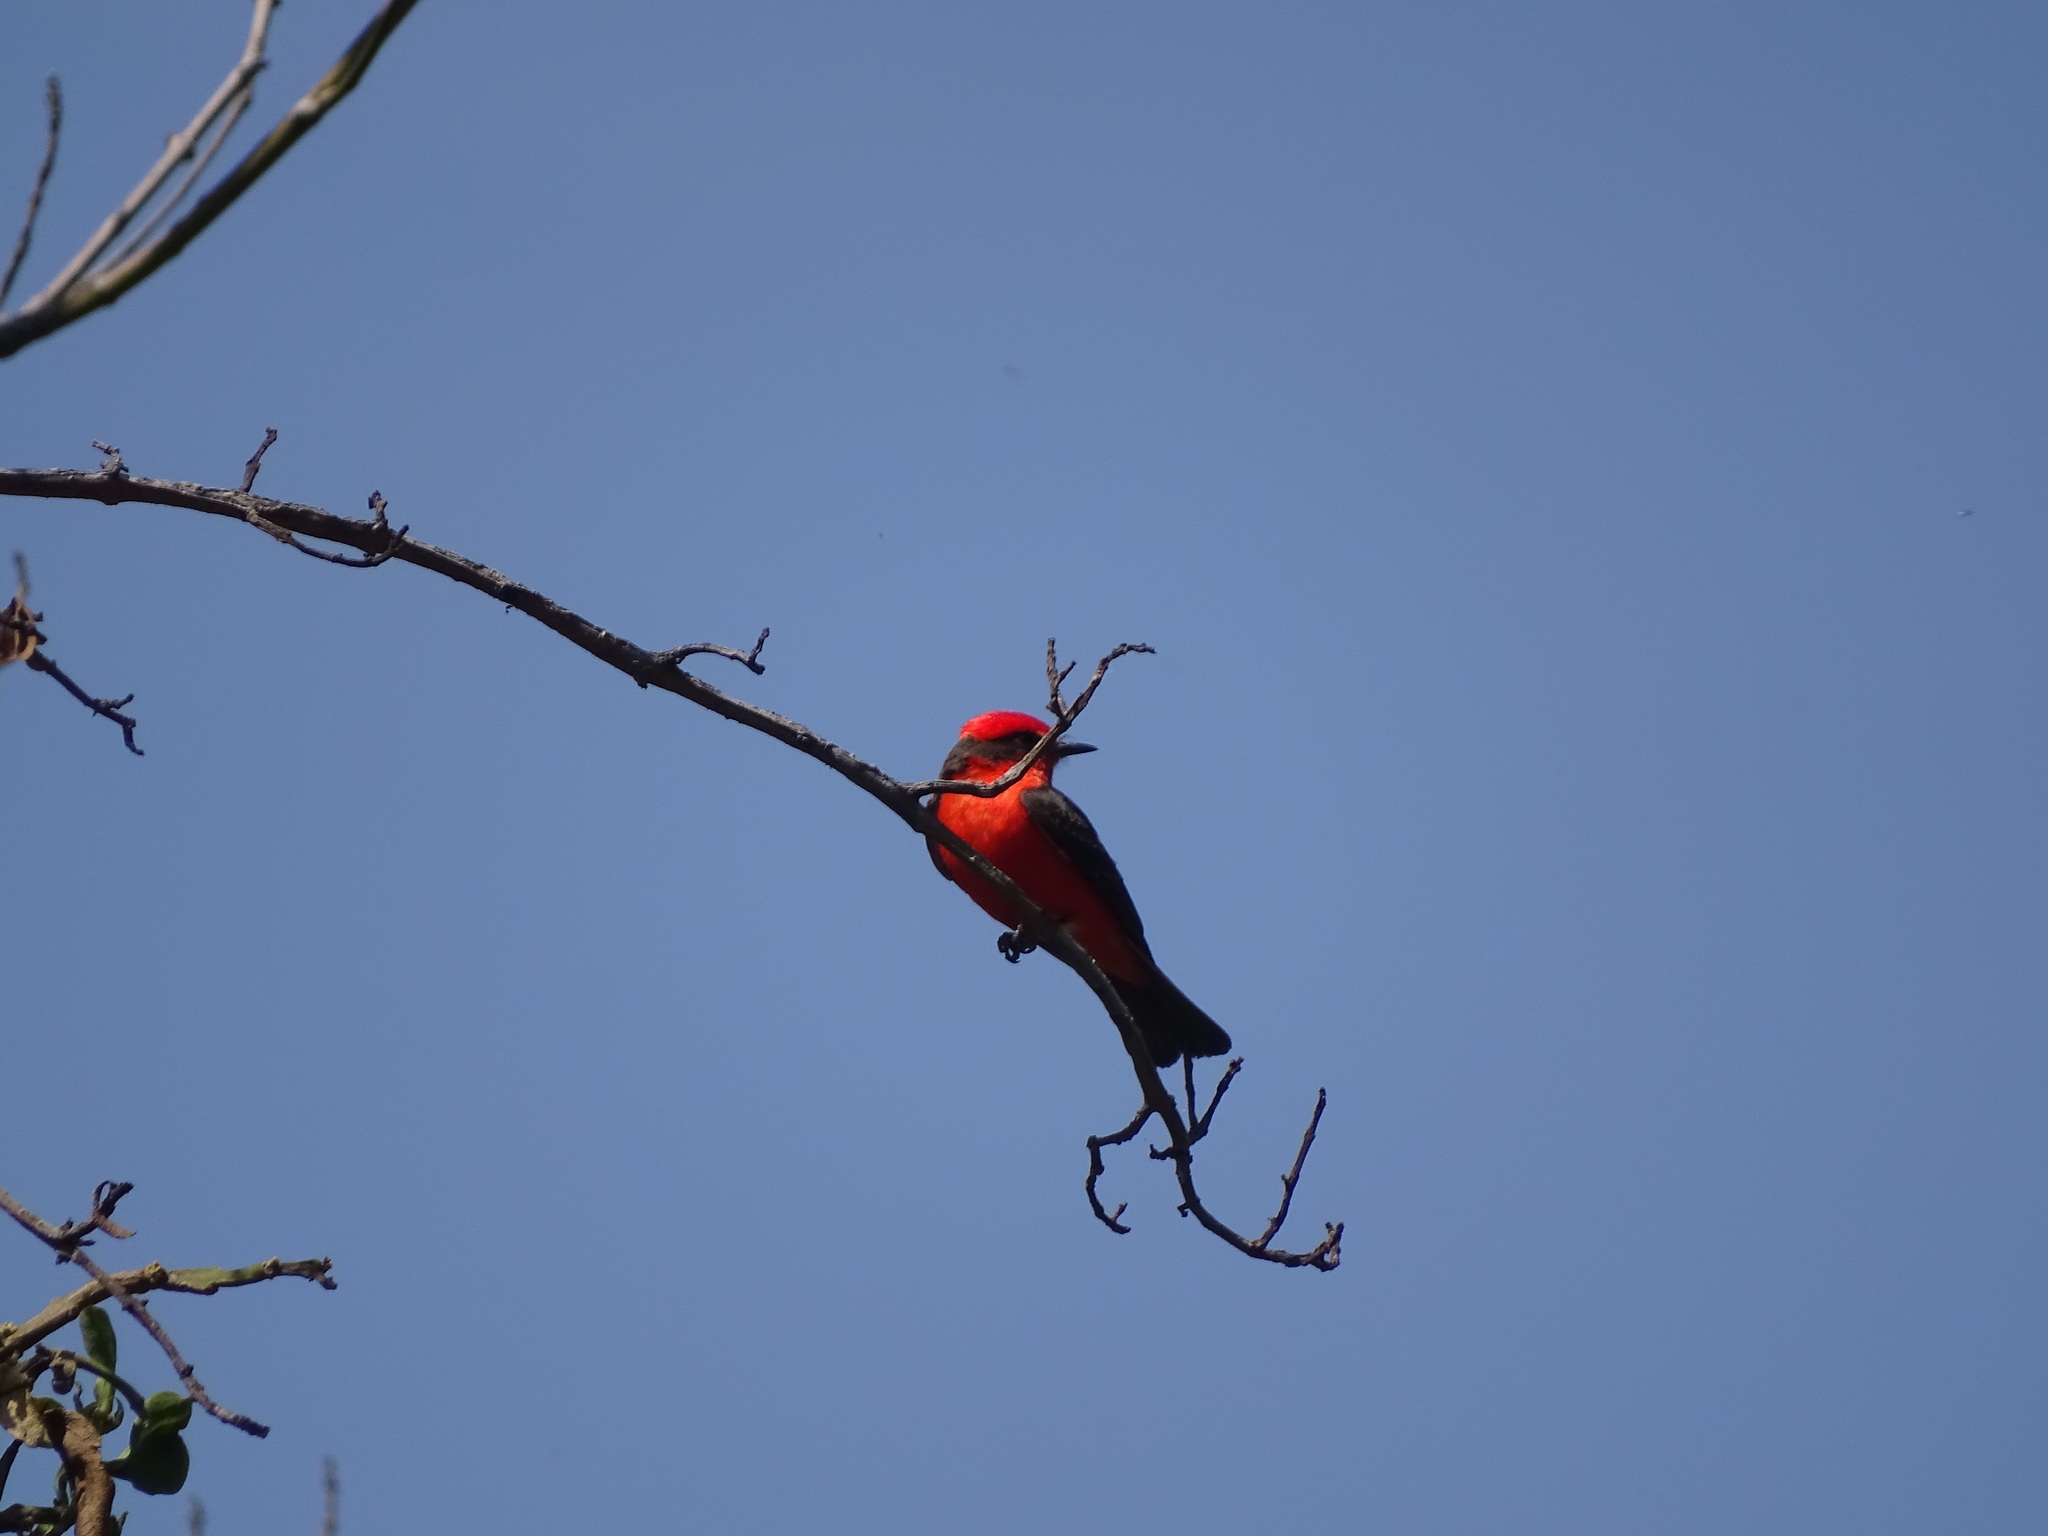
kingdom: Animalia
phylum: Chordata
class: Aves
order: Passeriformes
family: Tyrannidae
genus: Pyrocephalus
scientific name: Pyrocephalus rubinus
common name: Vermilion flycatcher
